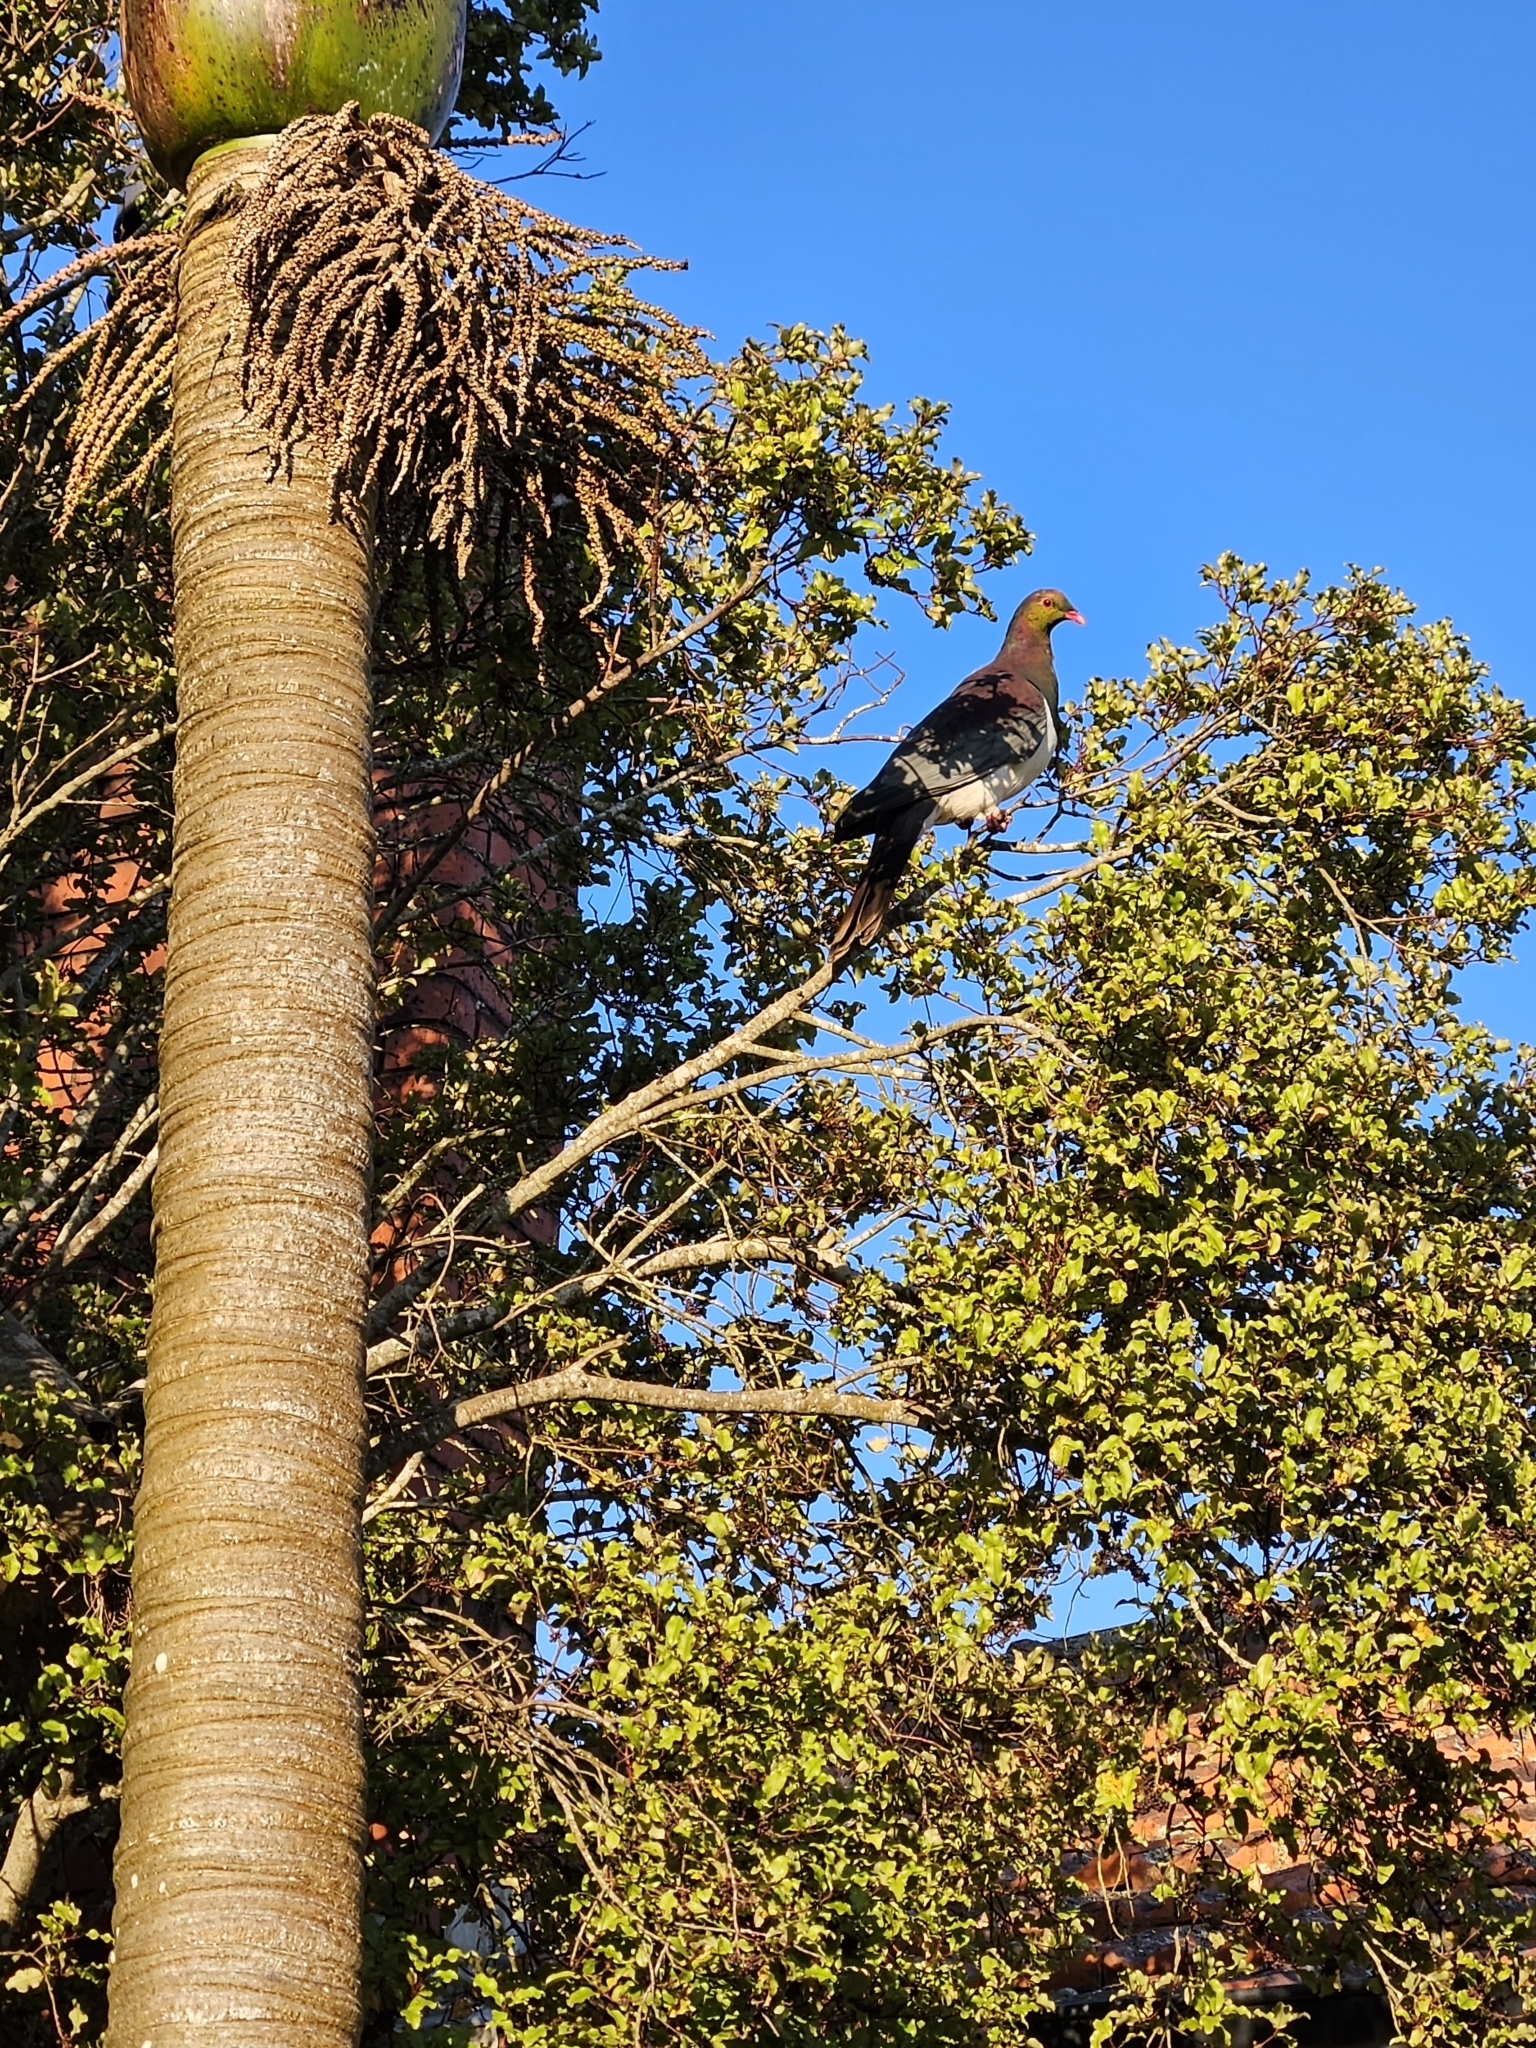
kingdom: Animalia
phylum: Chordata
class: Aves
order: Columbiformes
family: Columbidae
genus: Hemiphaga
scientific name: Hemiphaga novaeseelandiae
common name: New zealand pigeon
